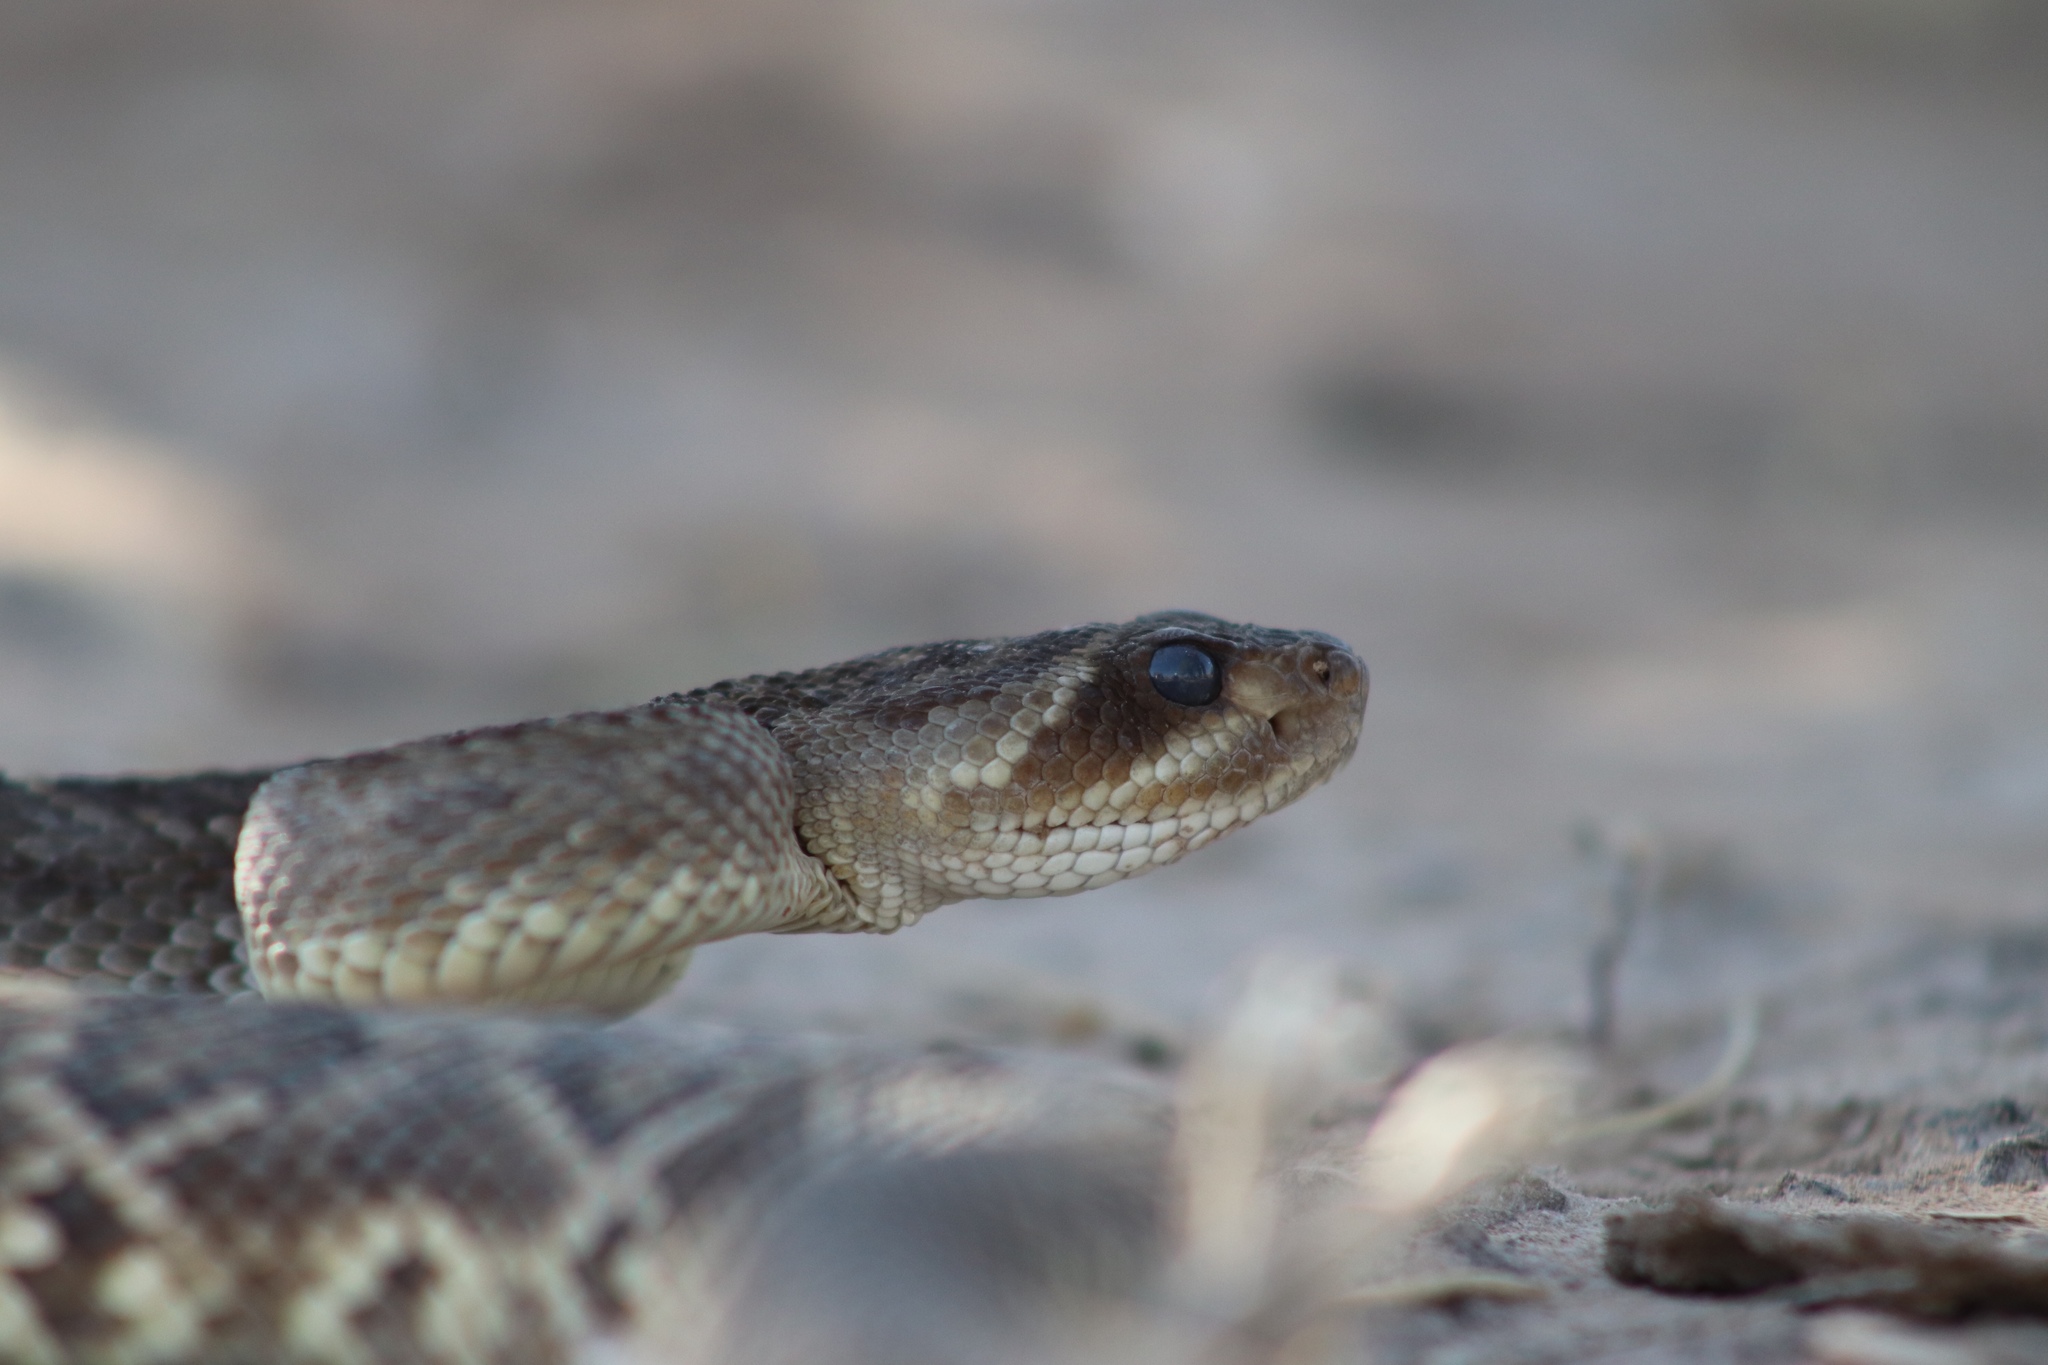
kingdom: Animalia
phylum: Chordata
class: Squamata
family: Viperidae
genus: Crotalus
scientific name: Crotalus molossus
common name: Black tailed rattlesnake
